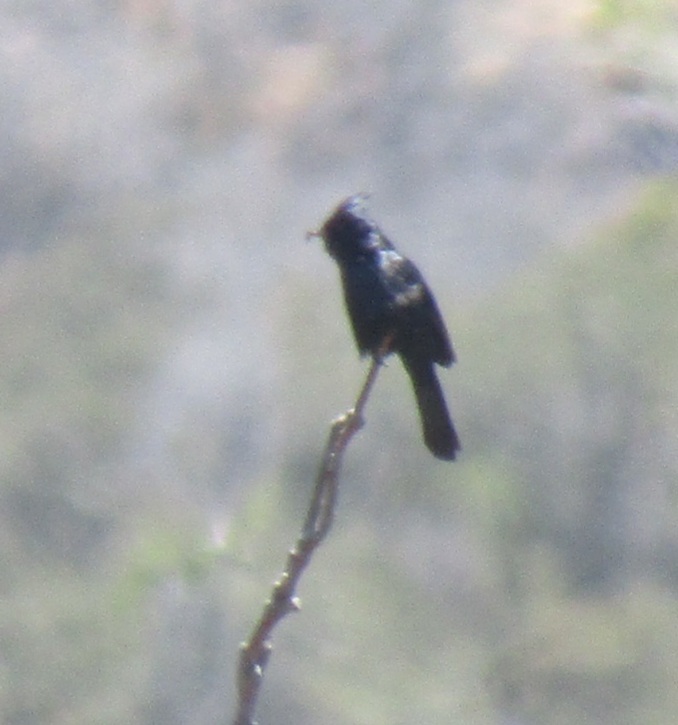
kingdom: Animalia
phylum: Chordata
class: Aves
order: Passeriformes
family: Ptilogonatidae
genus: Phainopepla
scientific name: Phainopepla nitens
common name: Phainopepla
